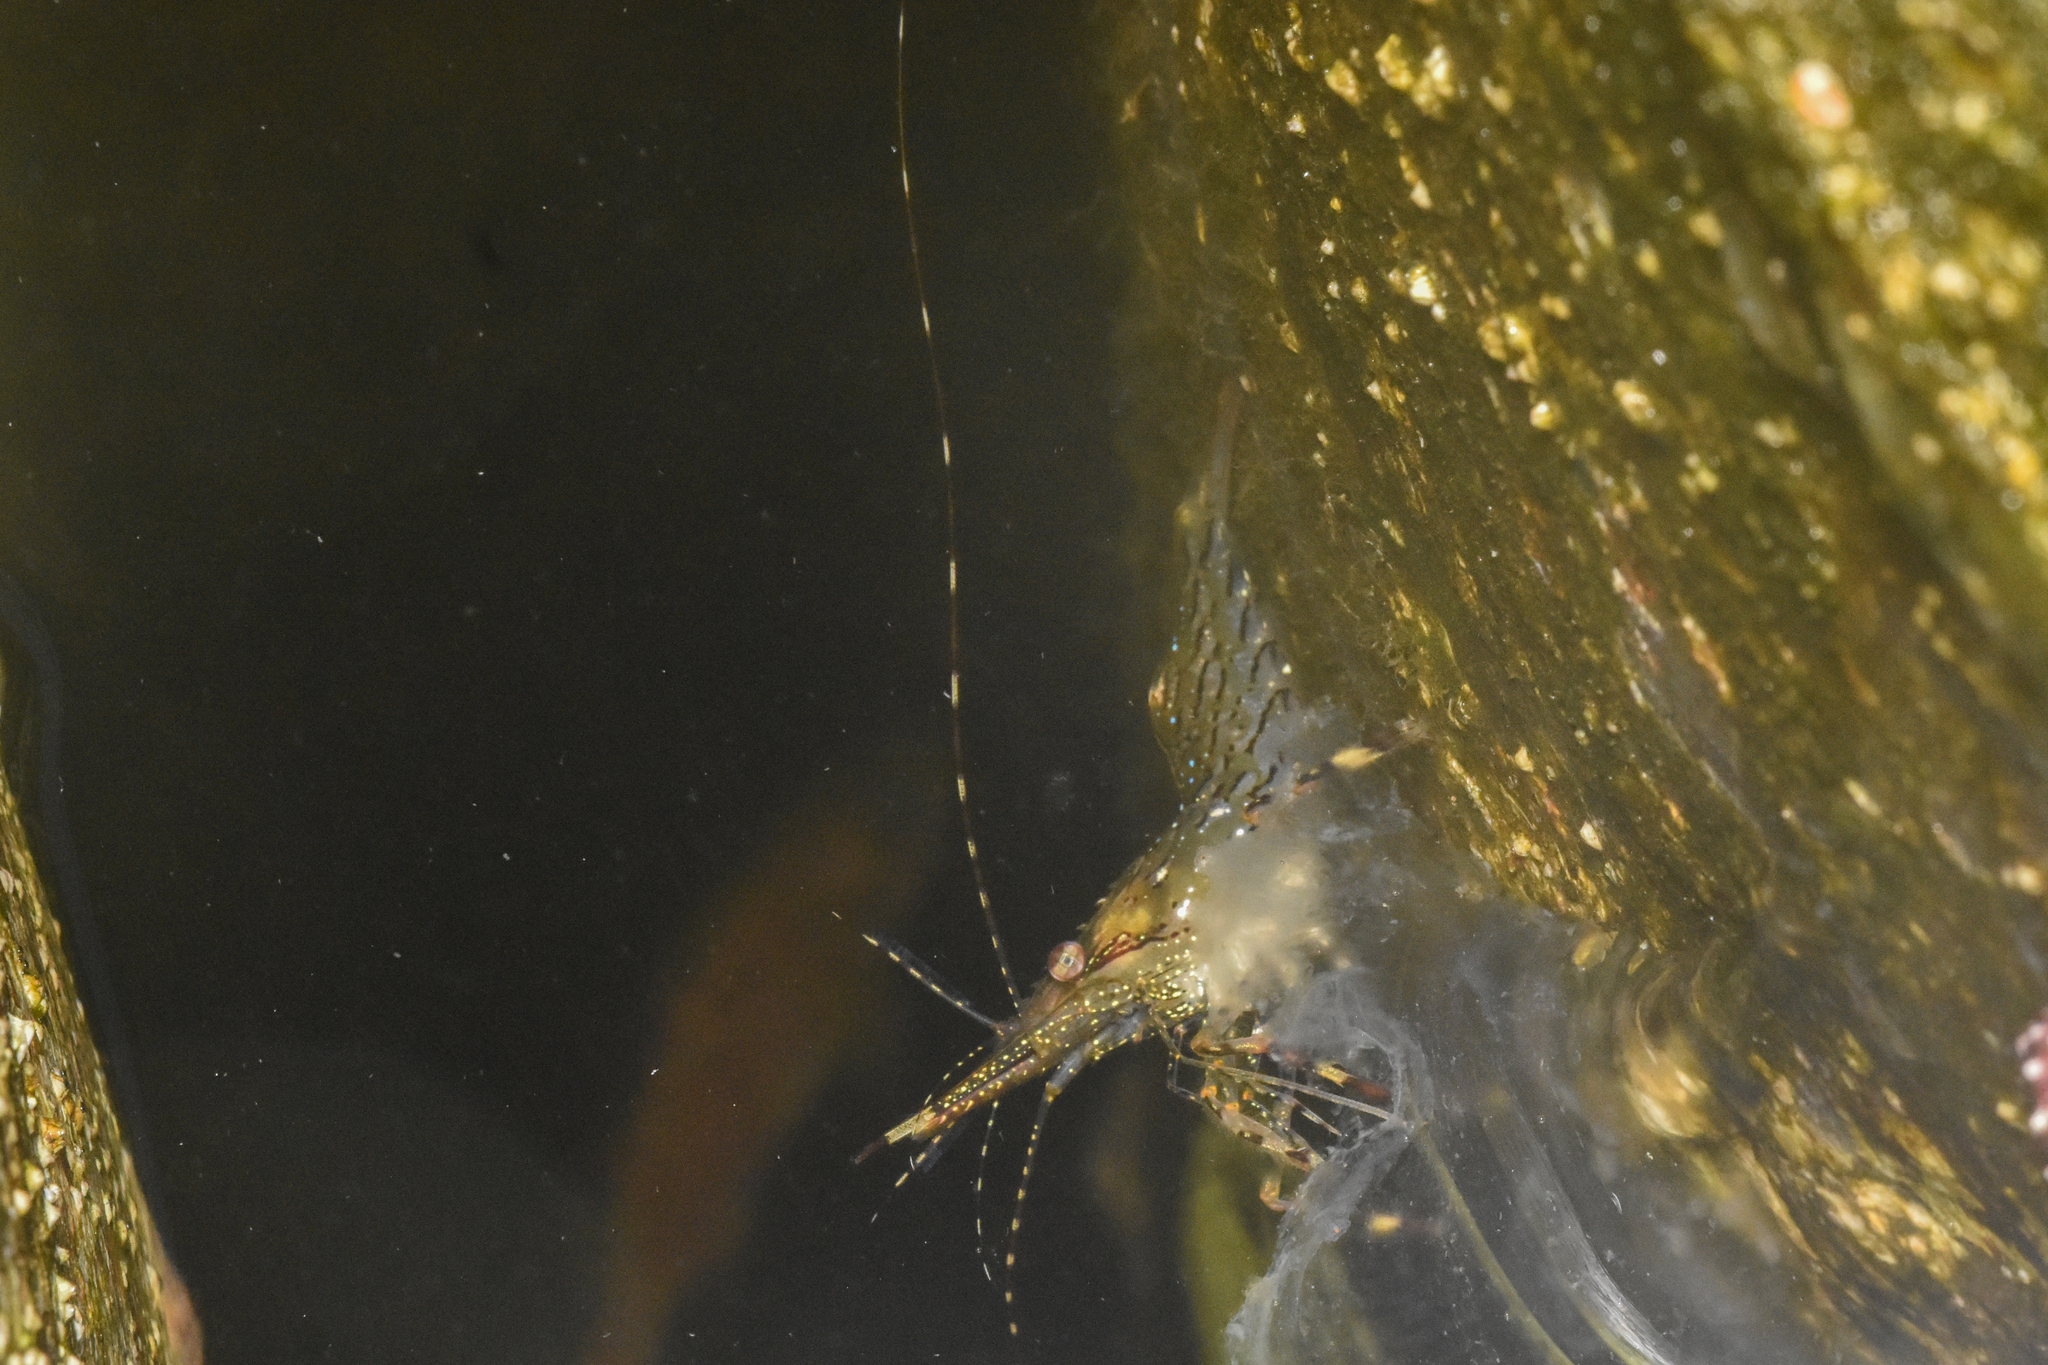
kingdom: Animalia
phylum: Arthropoda
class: Malacostraca
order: Decapoda
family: Pandalidae
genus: Pandalus
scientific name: Pandalus danae
